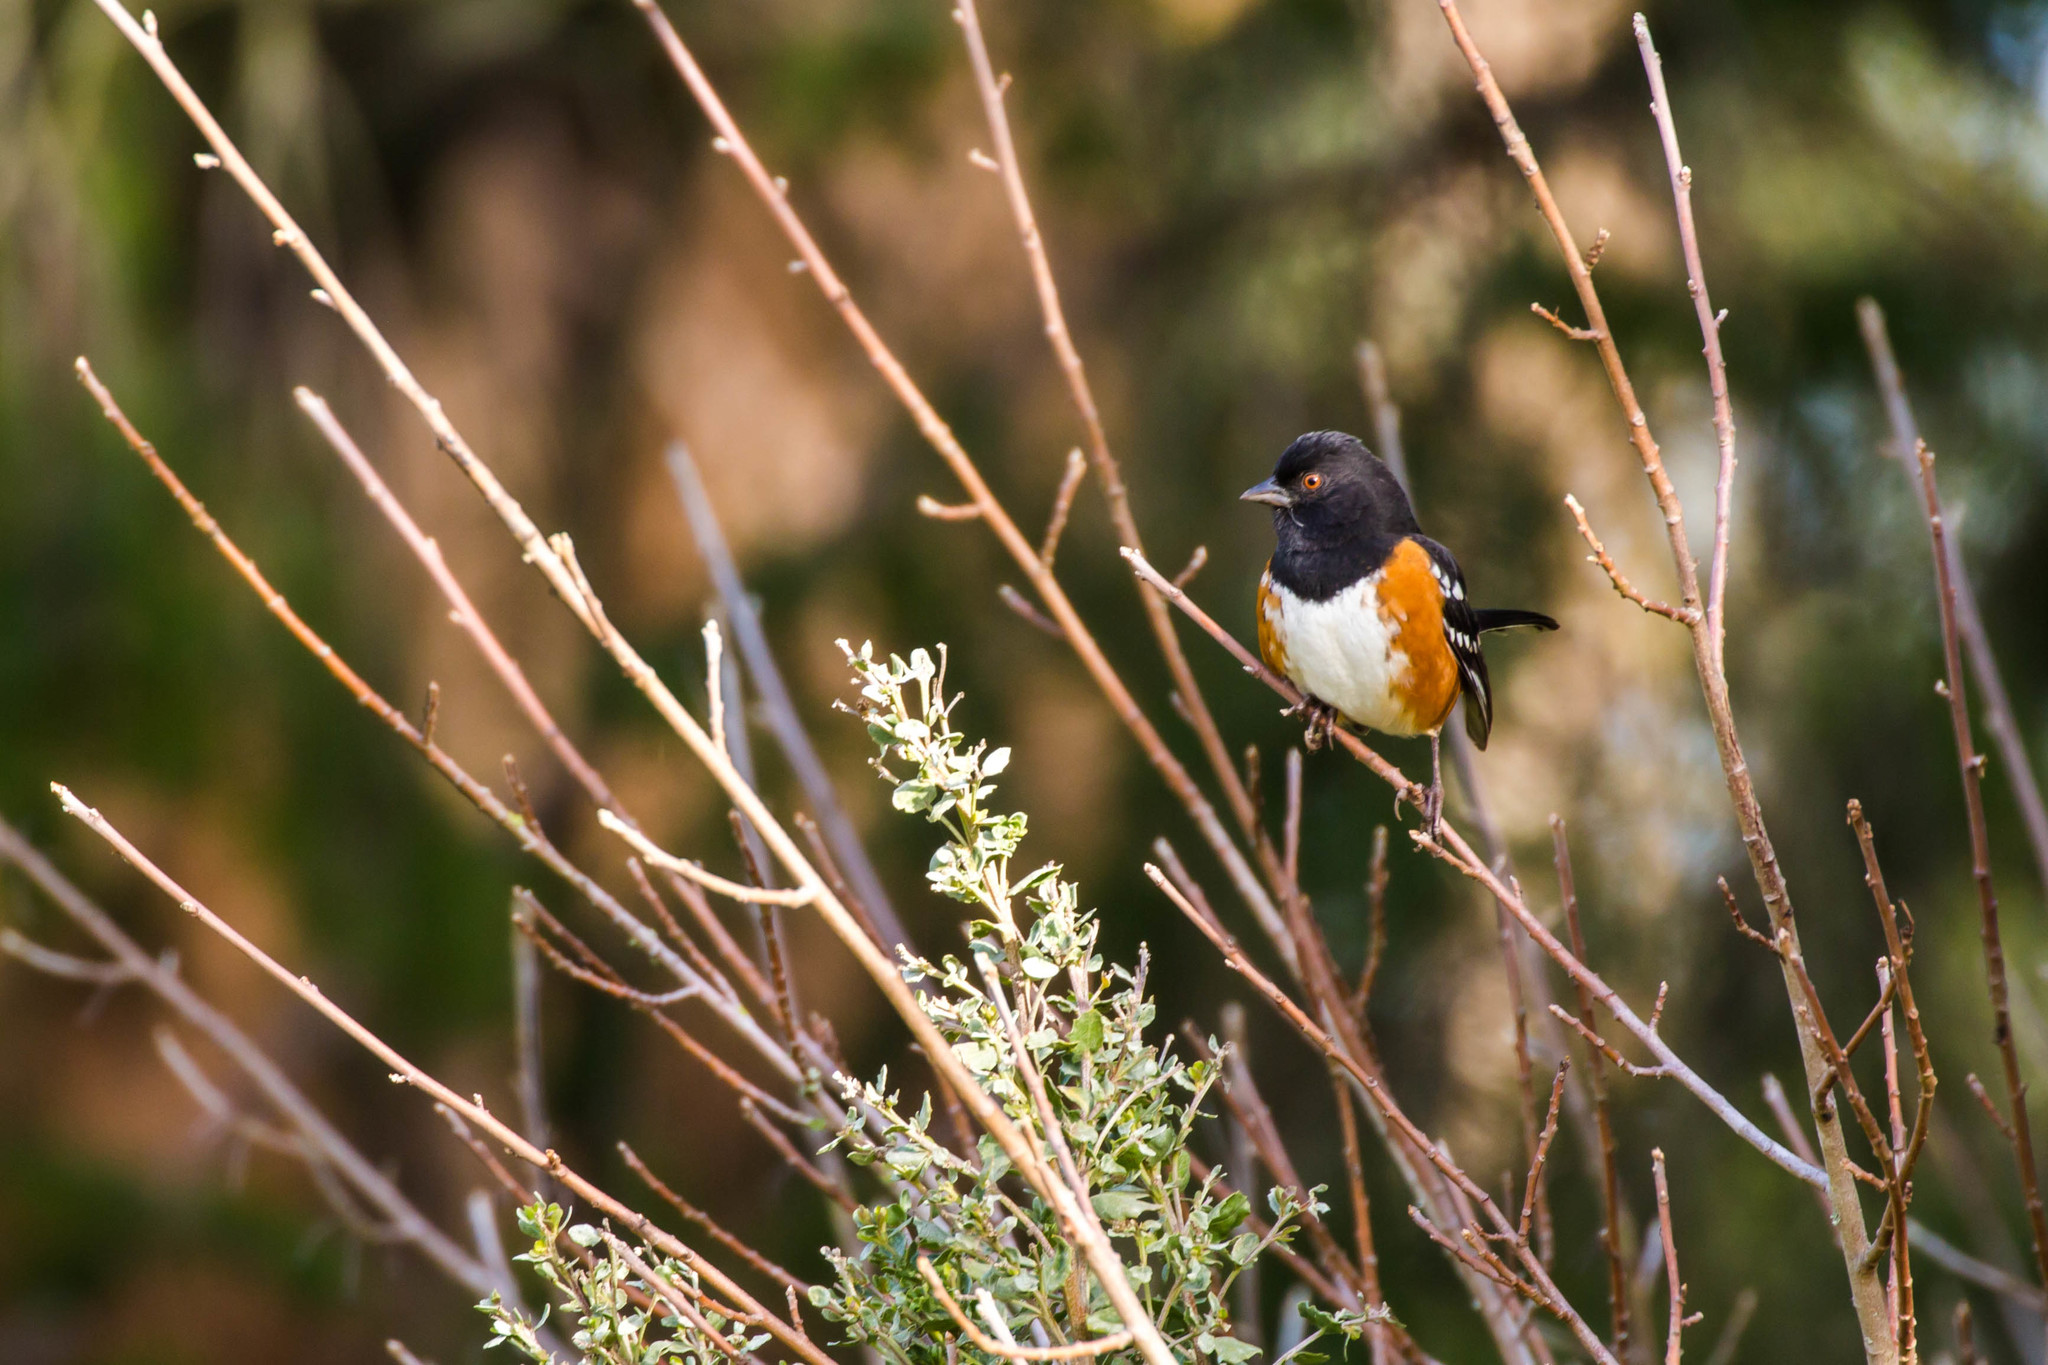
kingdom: Animalia
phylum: Chordata
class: Aves
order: Passeriformes
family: Passerellidae
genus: Pipilo
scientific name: Pipilo maculatus
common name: Spotted towhee
